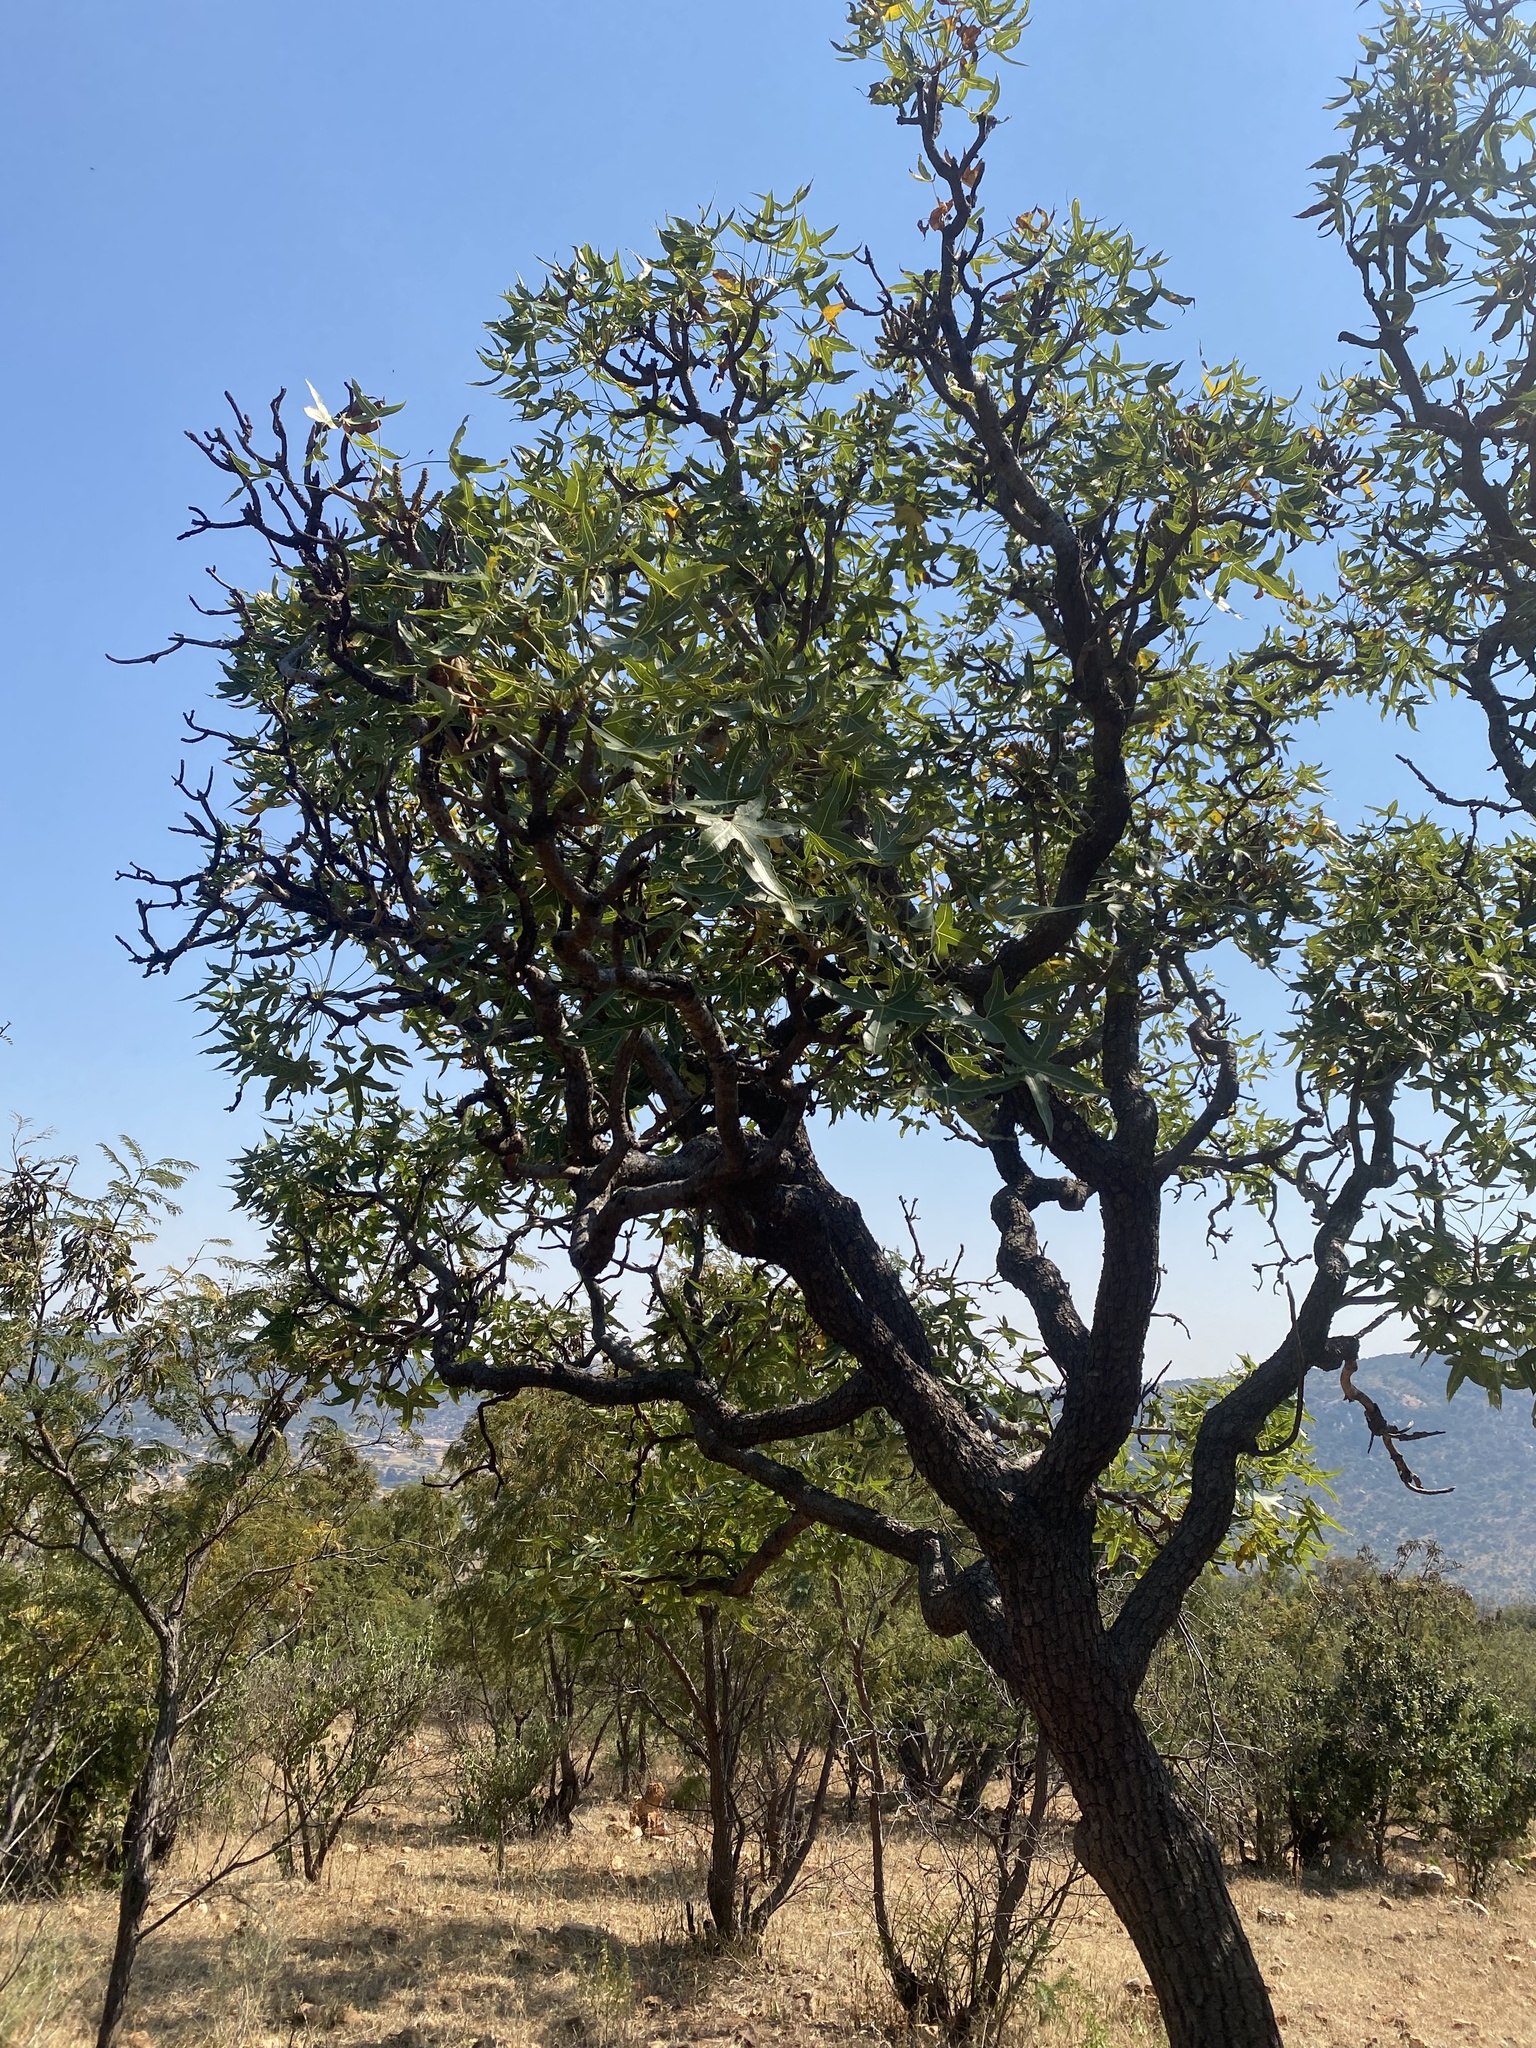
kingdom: Plantae
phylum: Tracheophyta
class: Magnoliopsida
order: Apiales
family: Araliaceae
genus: Cussonia
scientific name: Cussonia spicata
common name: Common cabbagetree
